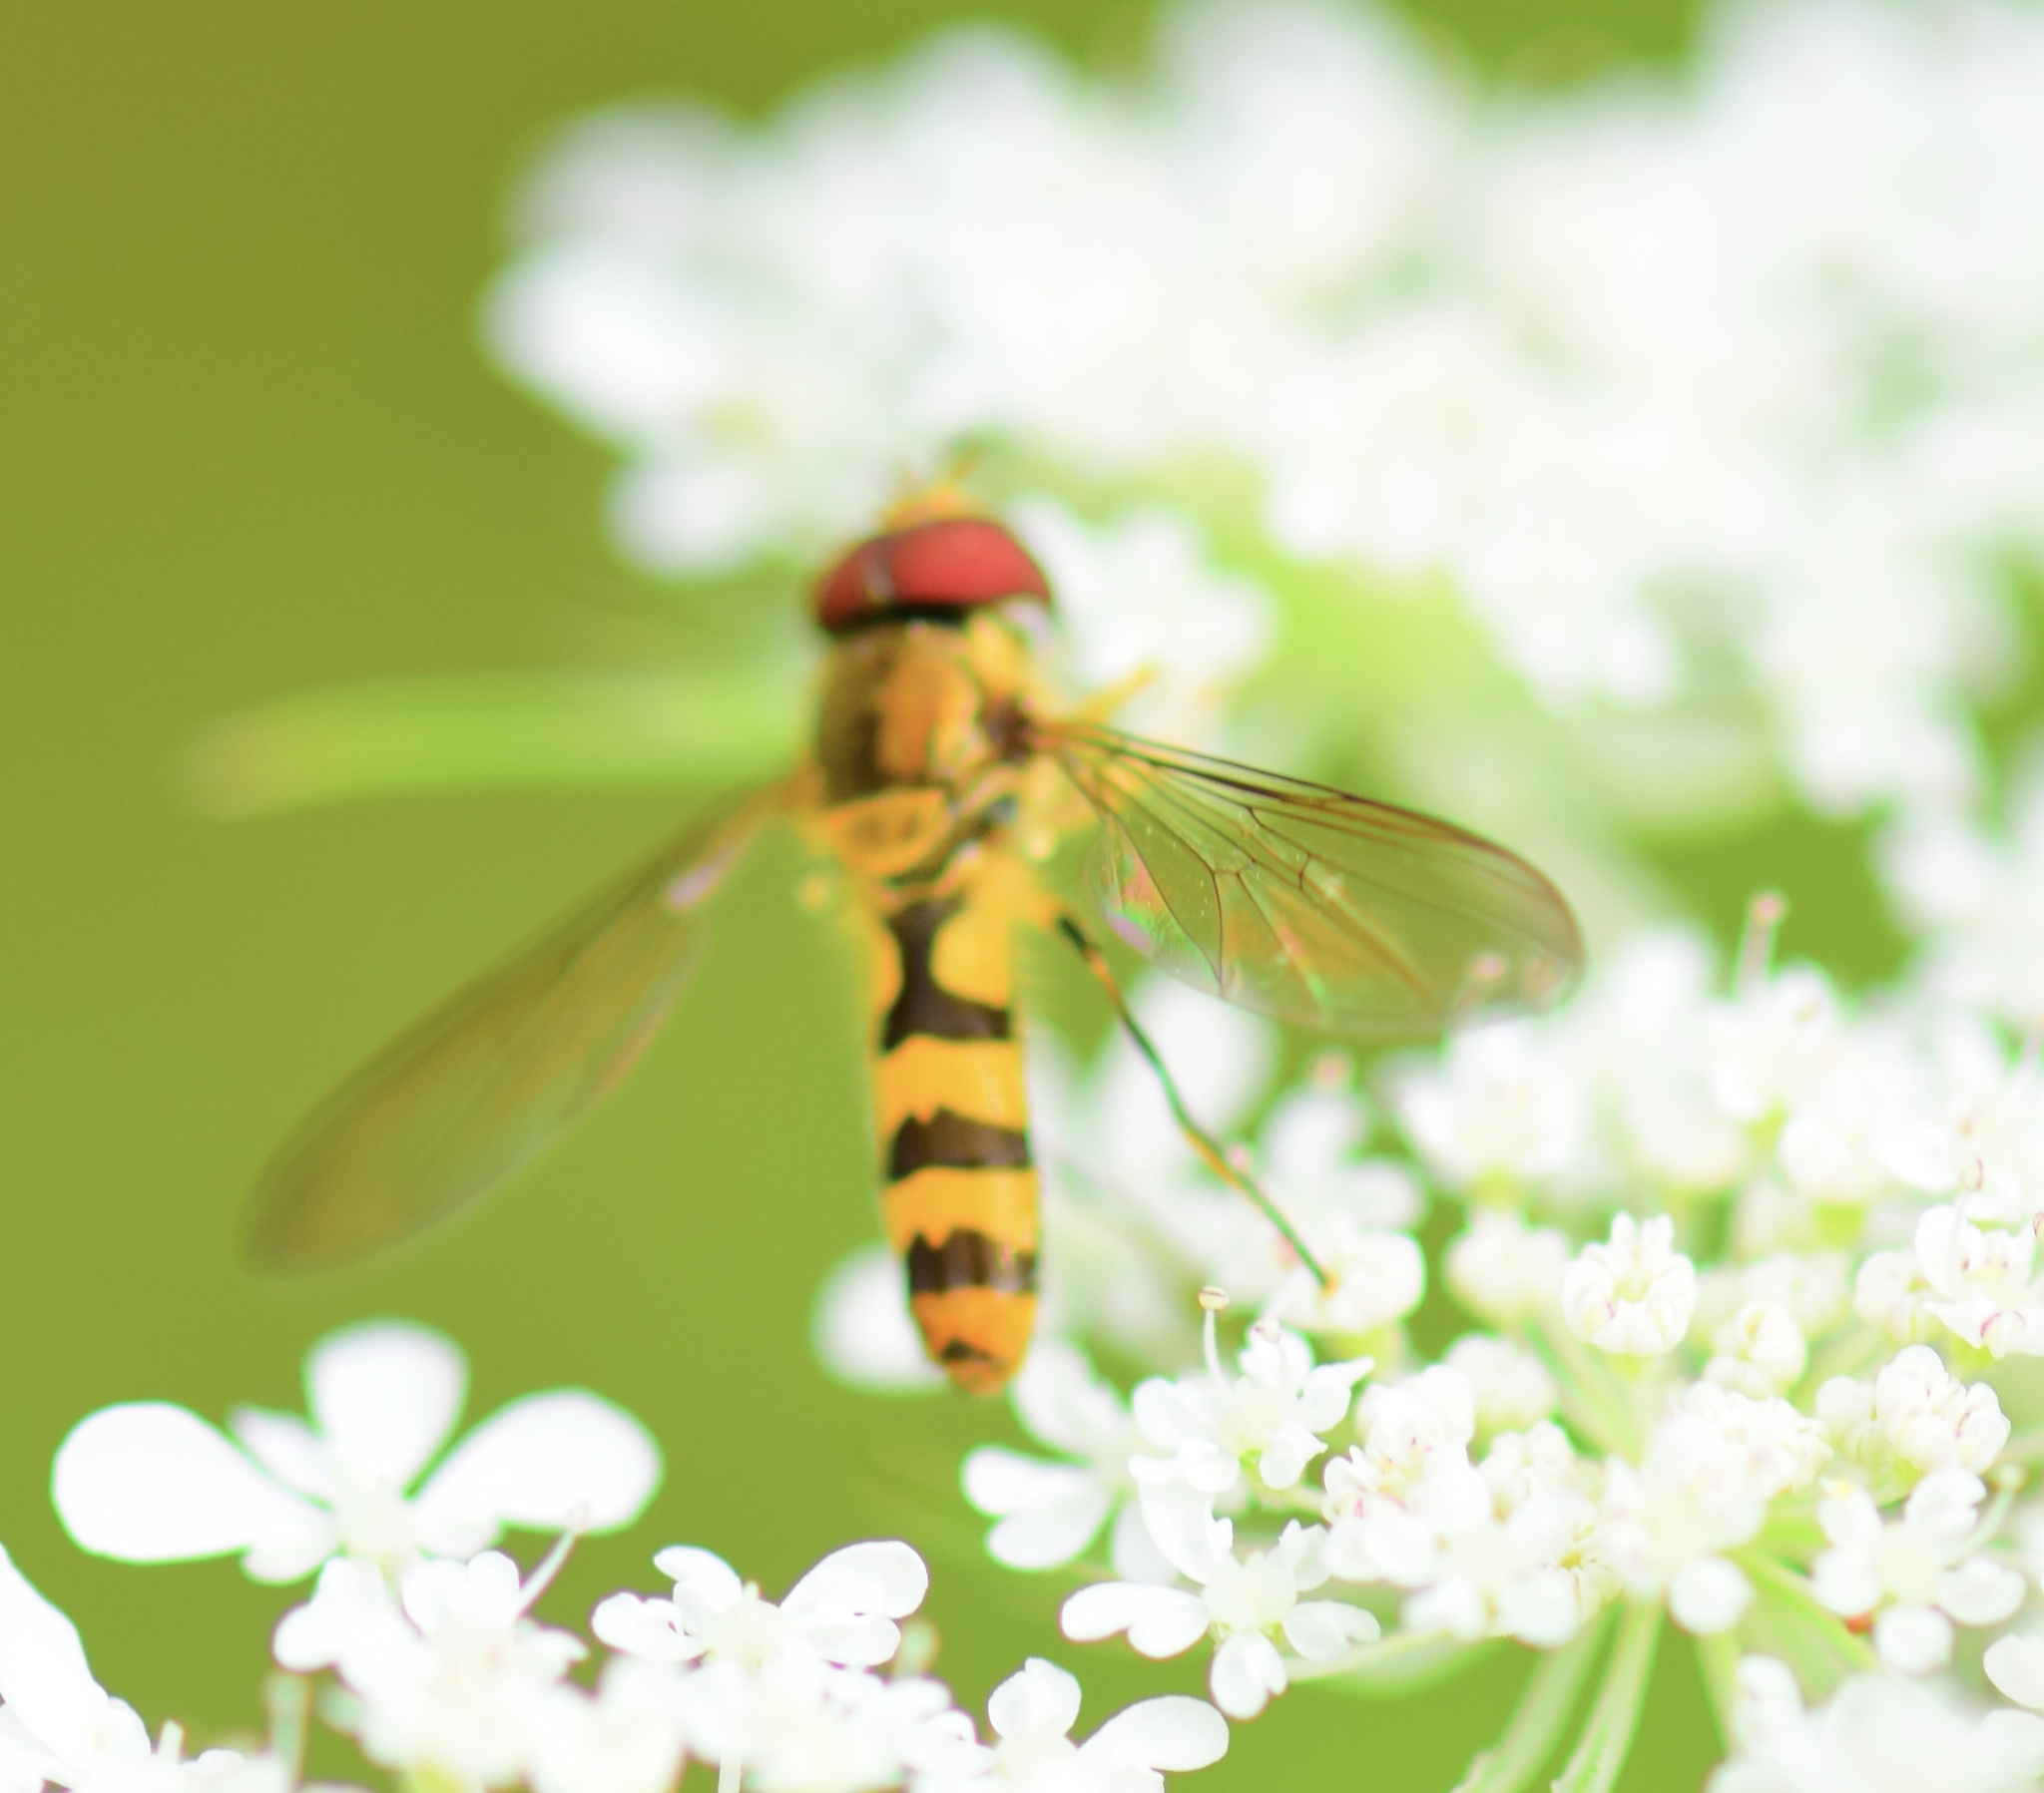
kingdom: Animalia
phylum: Arthropoda
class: Insecta
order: Diptera
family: Syrphidae
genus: Meliscaeva
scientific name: Meliscaeva cinctella
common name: American thintail fly
